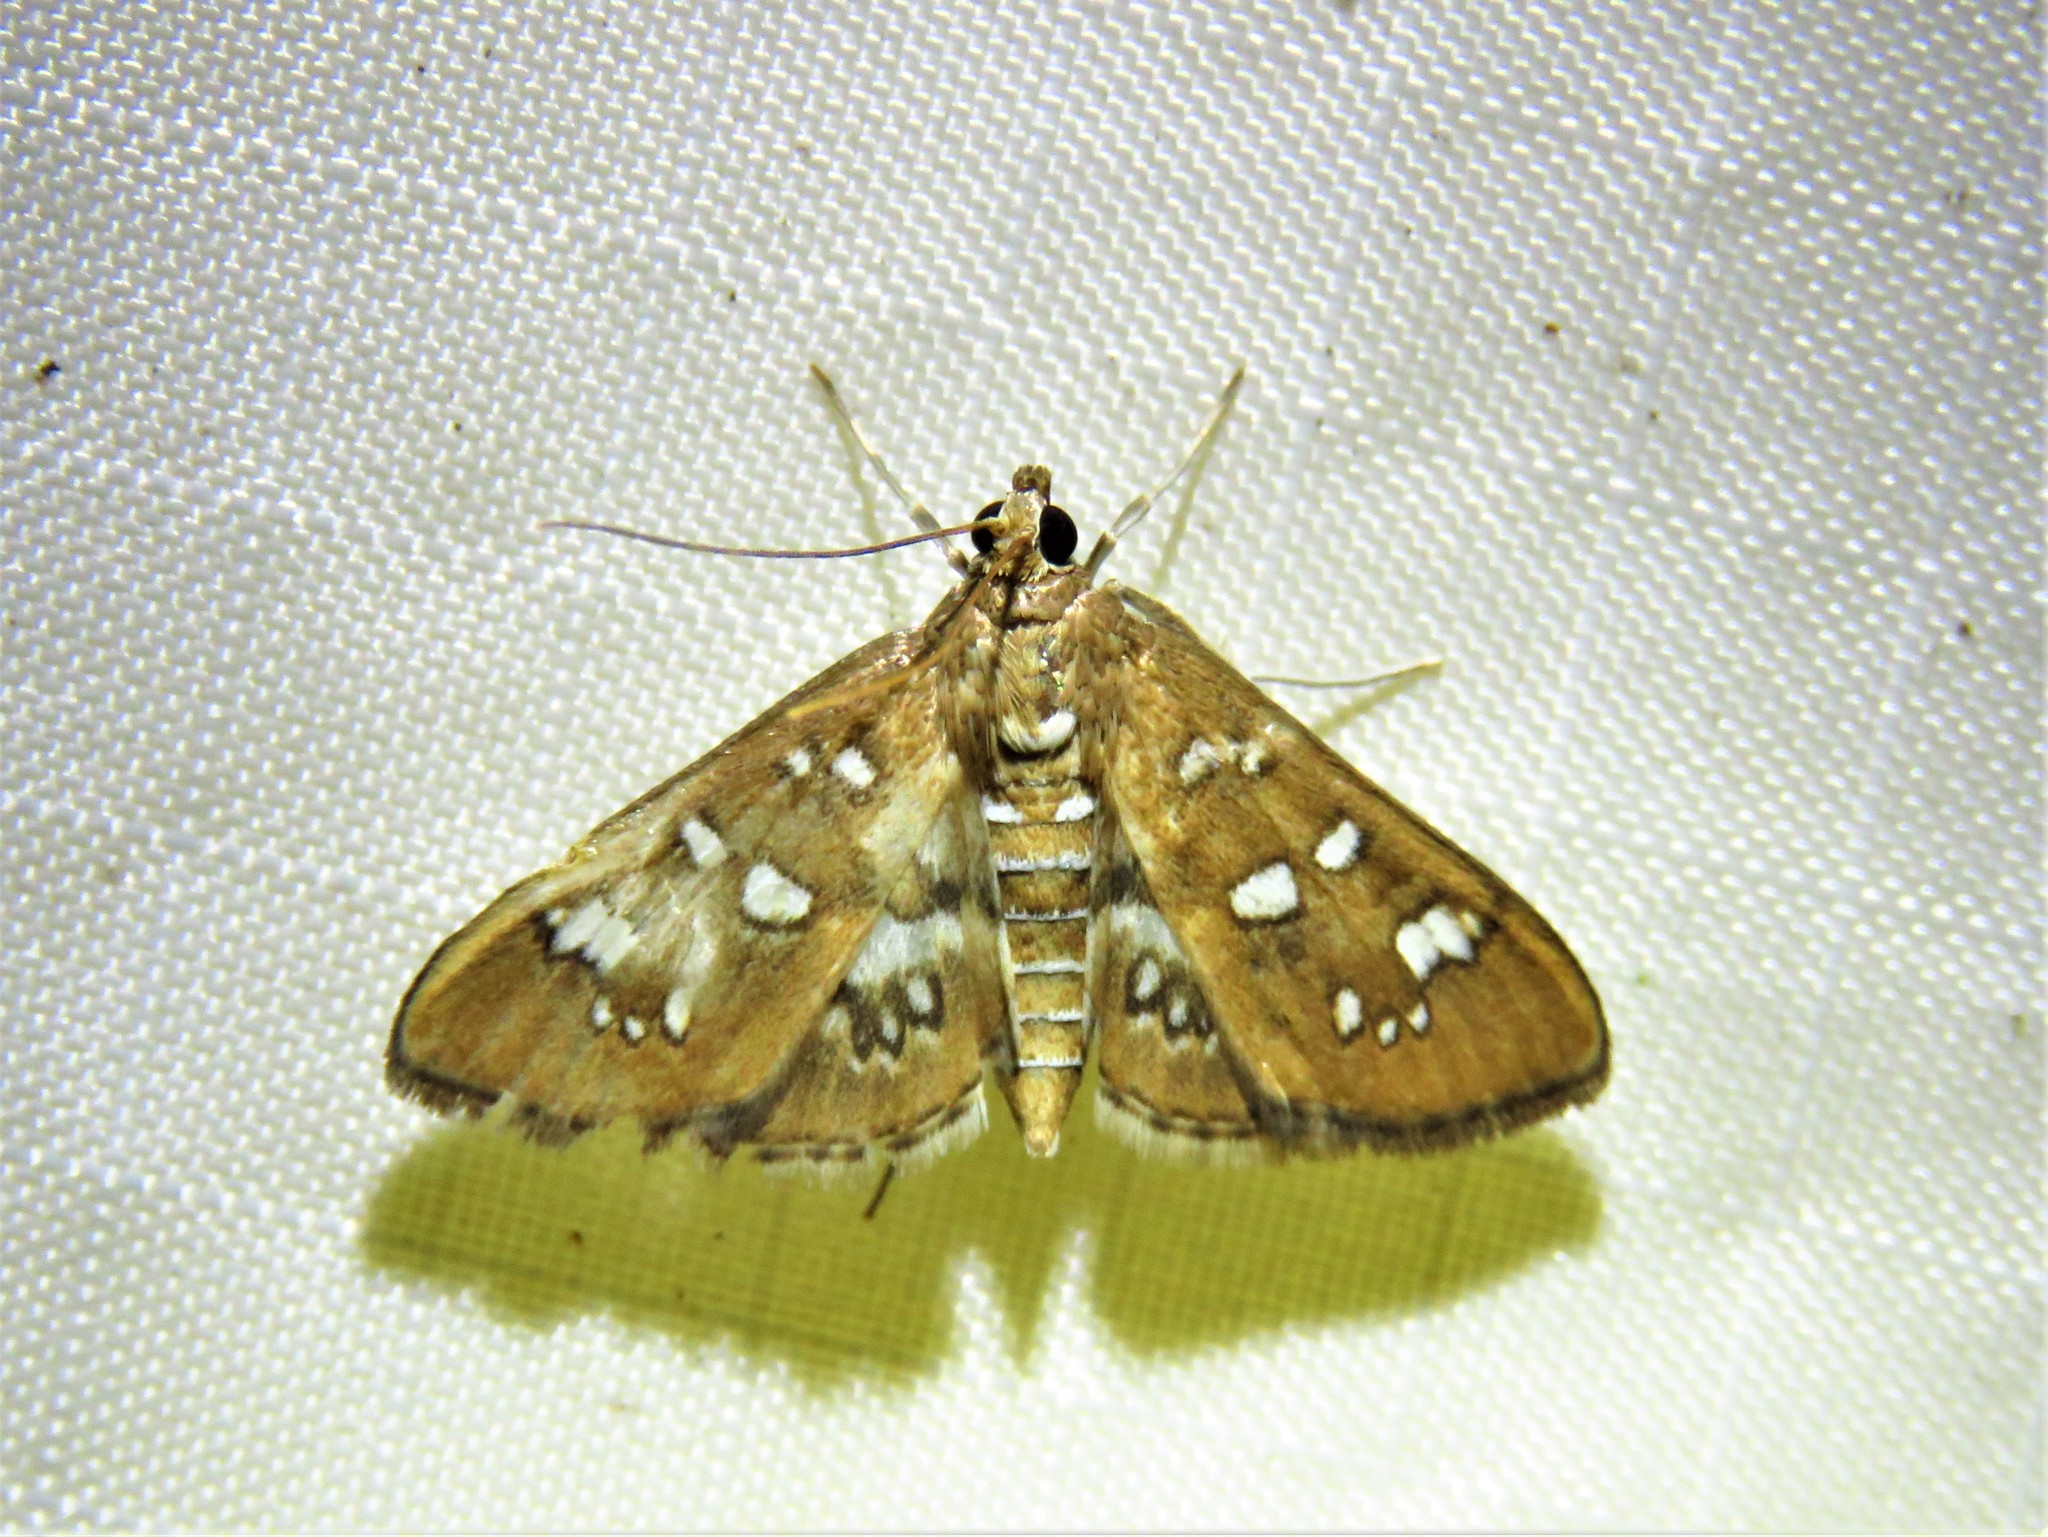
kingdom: Animalia
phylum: Arthropoda
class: Insecta
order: Lepidoptera
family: Crambidae
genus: Samea
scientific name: Samea baccatalis
